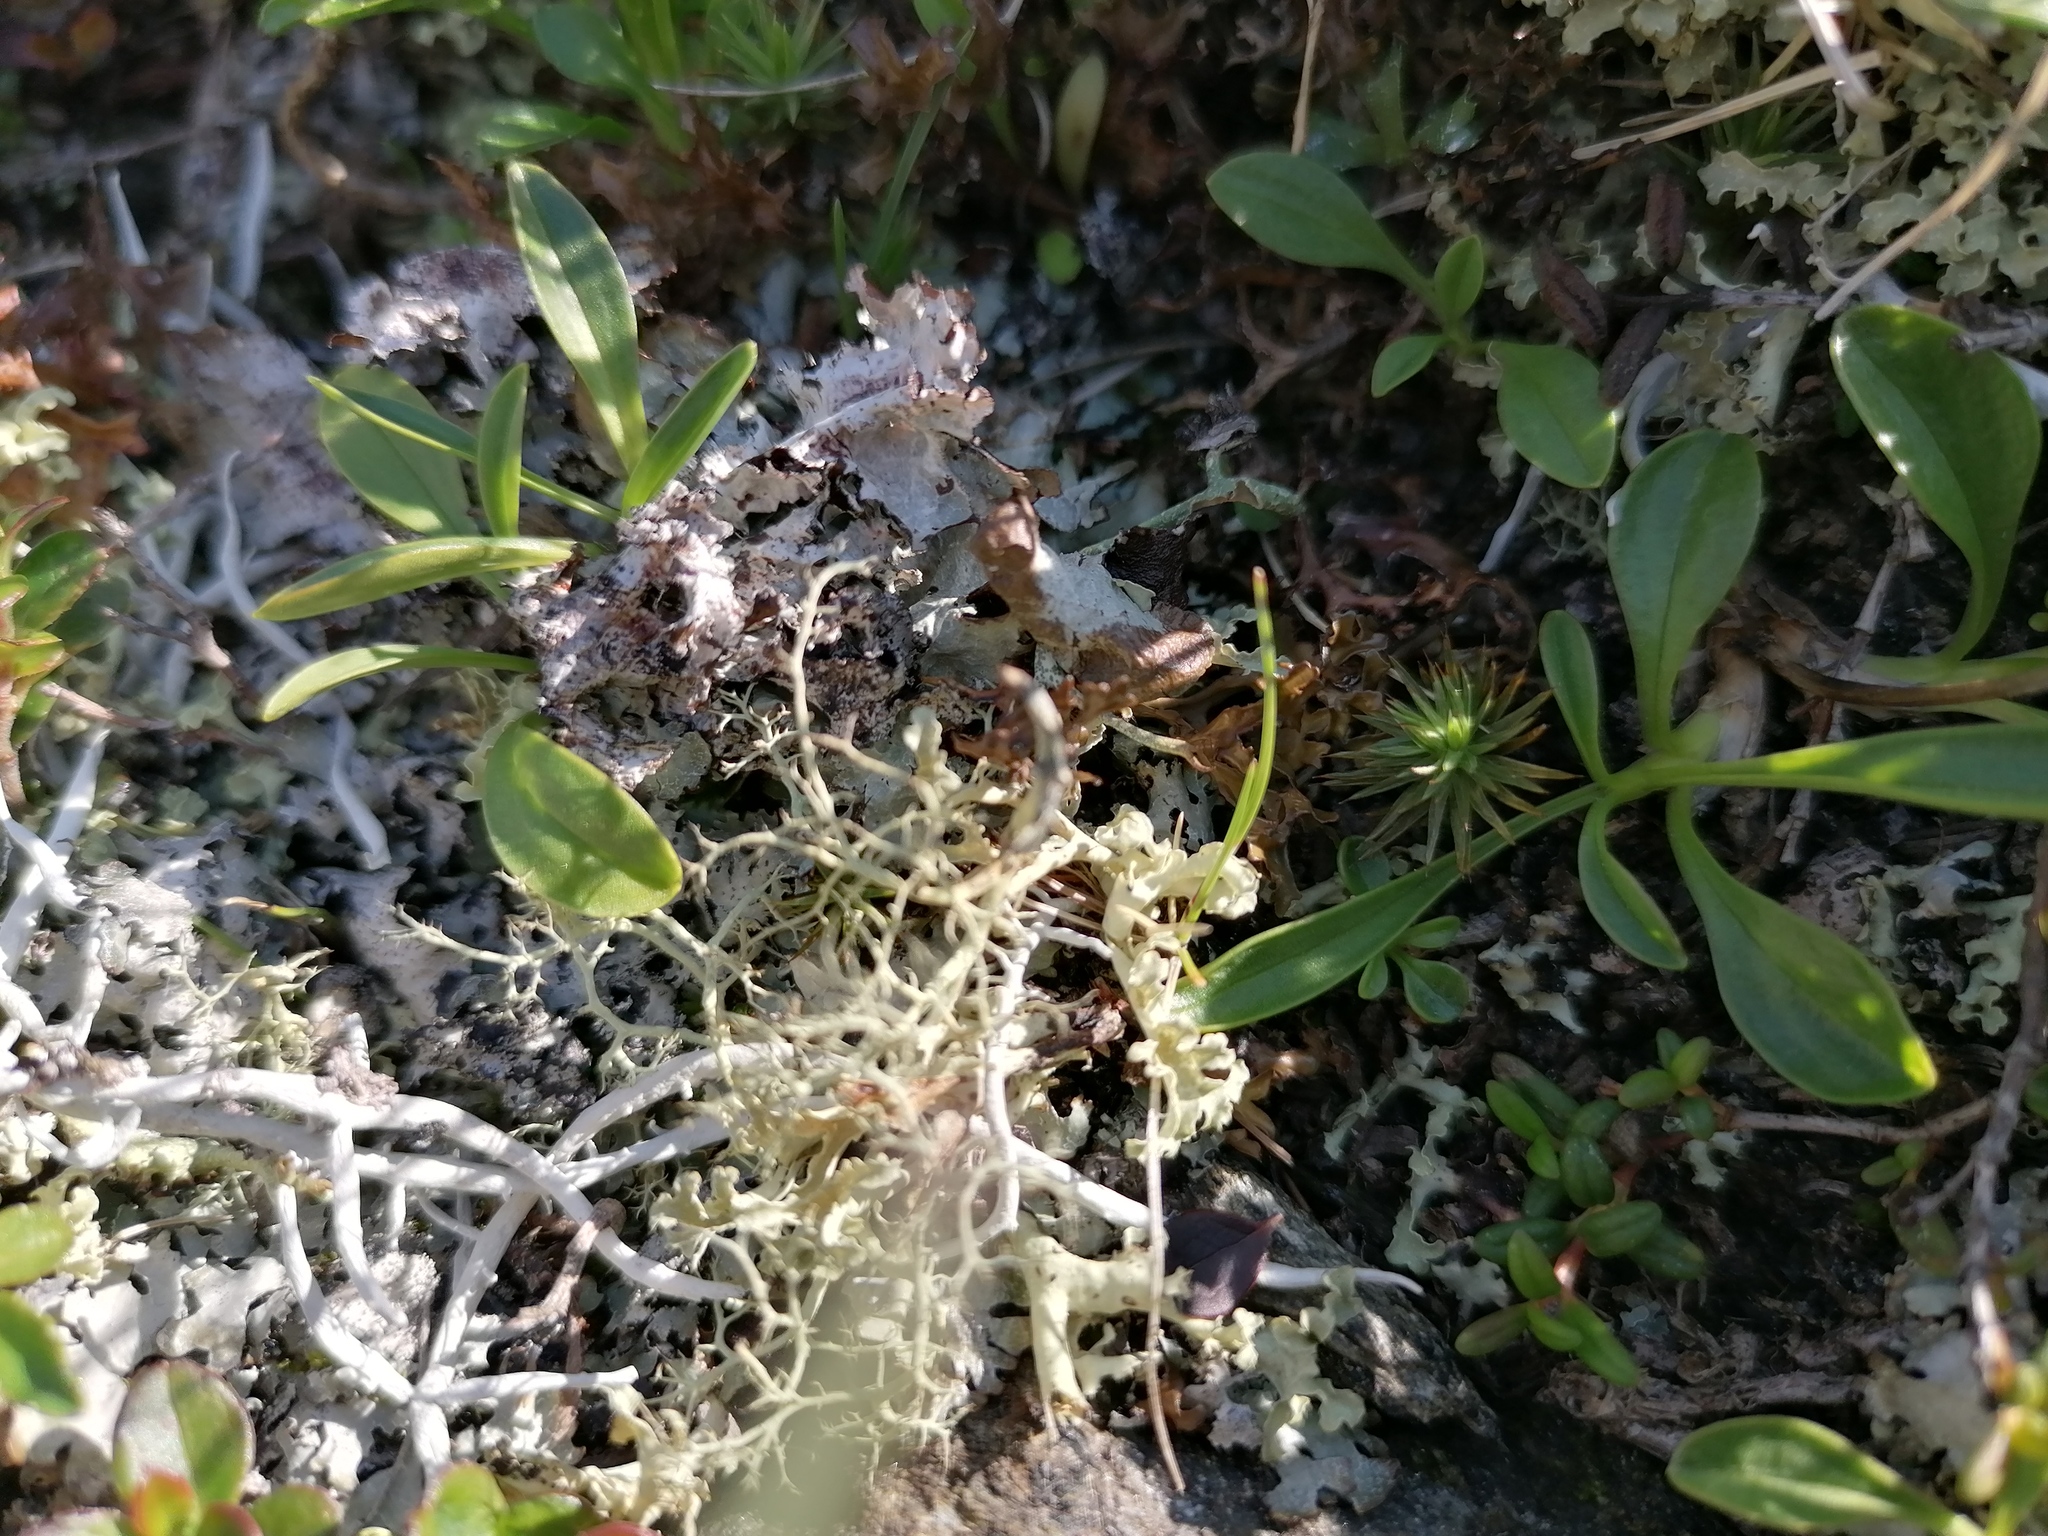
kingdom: Fungi
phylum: Ascomycota
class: Lecanoromycetes
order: Lecanorales
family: Parmeliaceae
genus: Alectoria
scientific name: Alectoria ochroleuca
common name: Alpine sulphur-tresses
